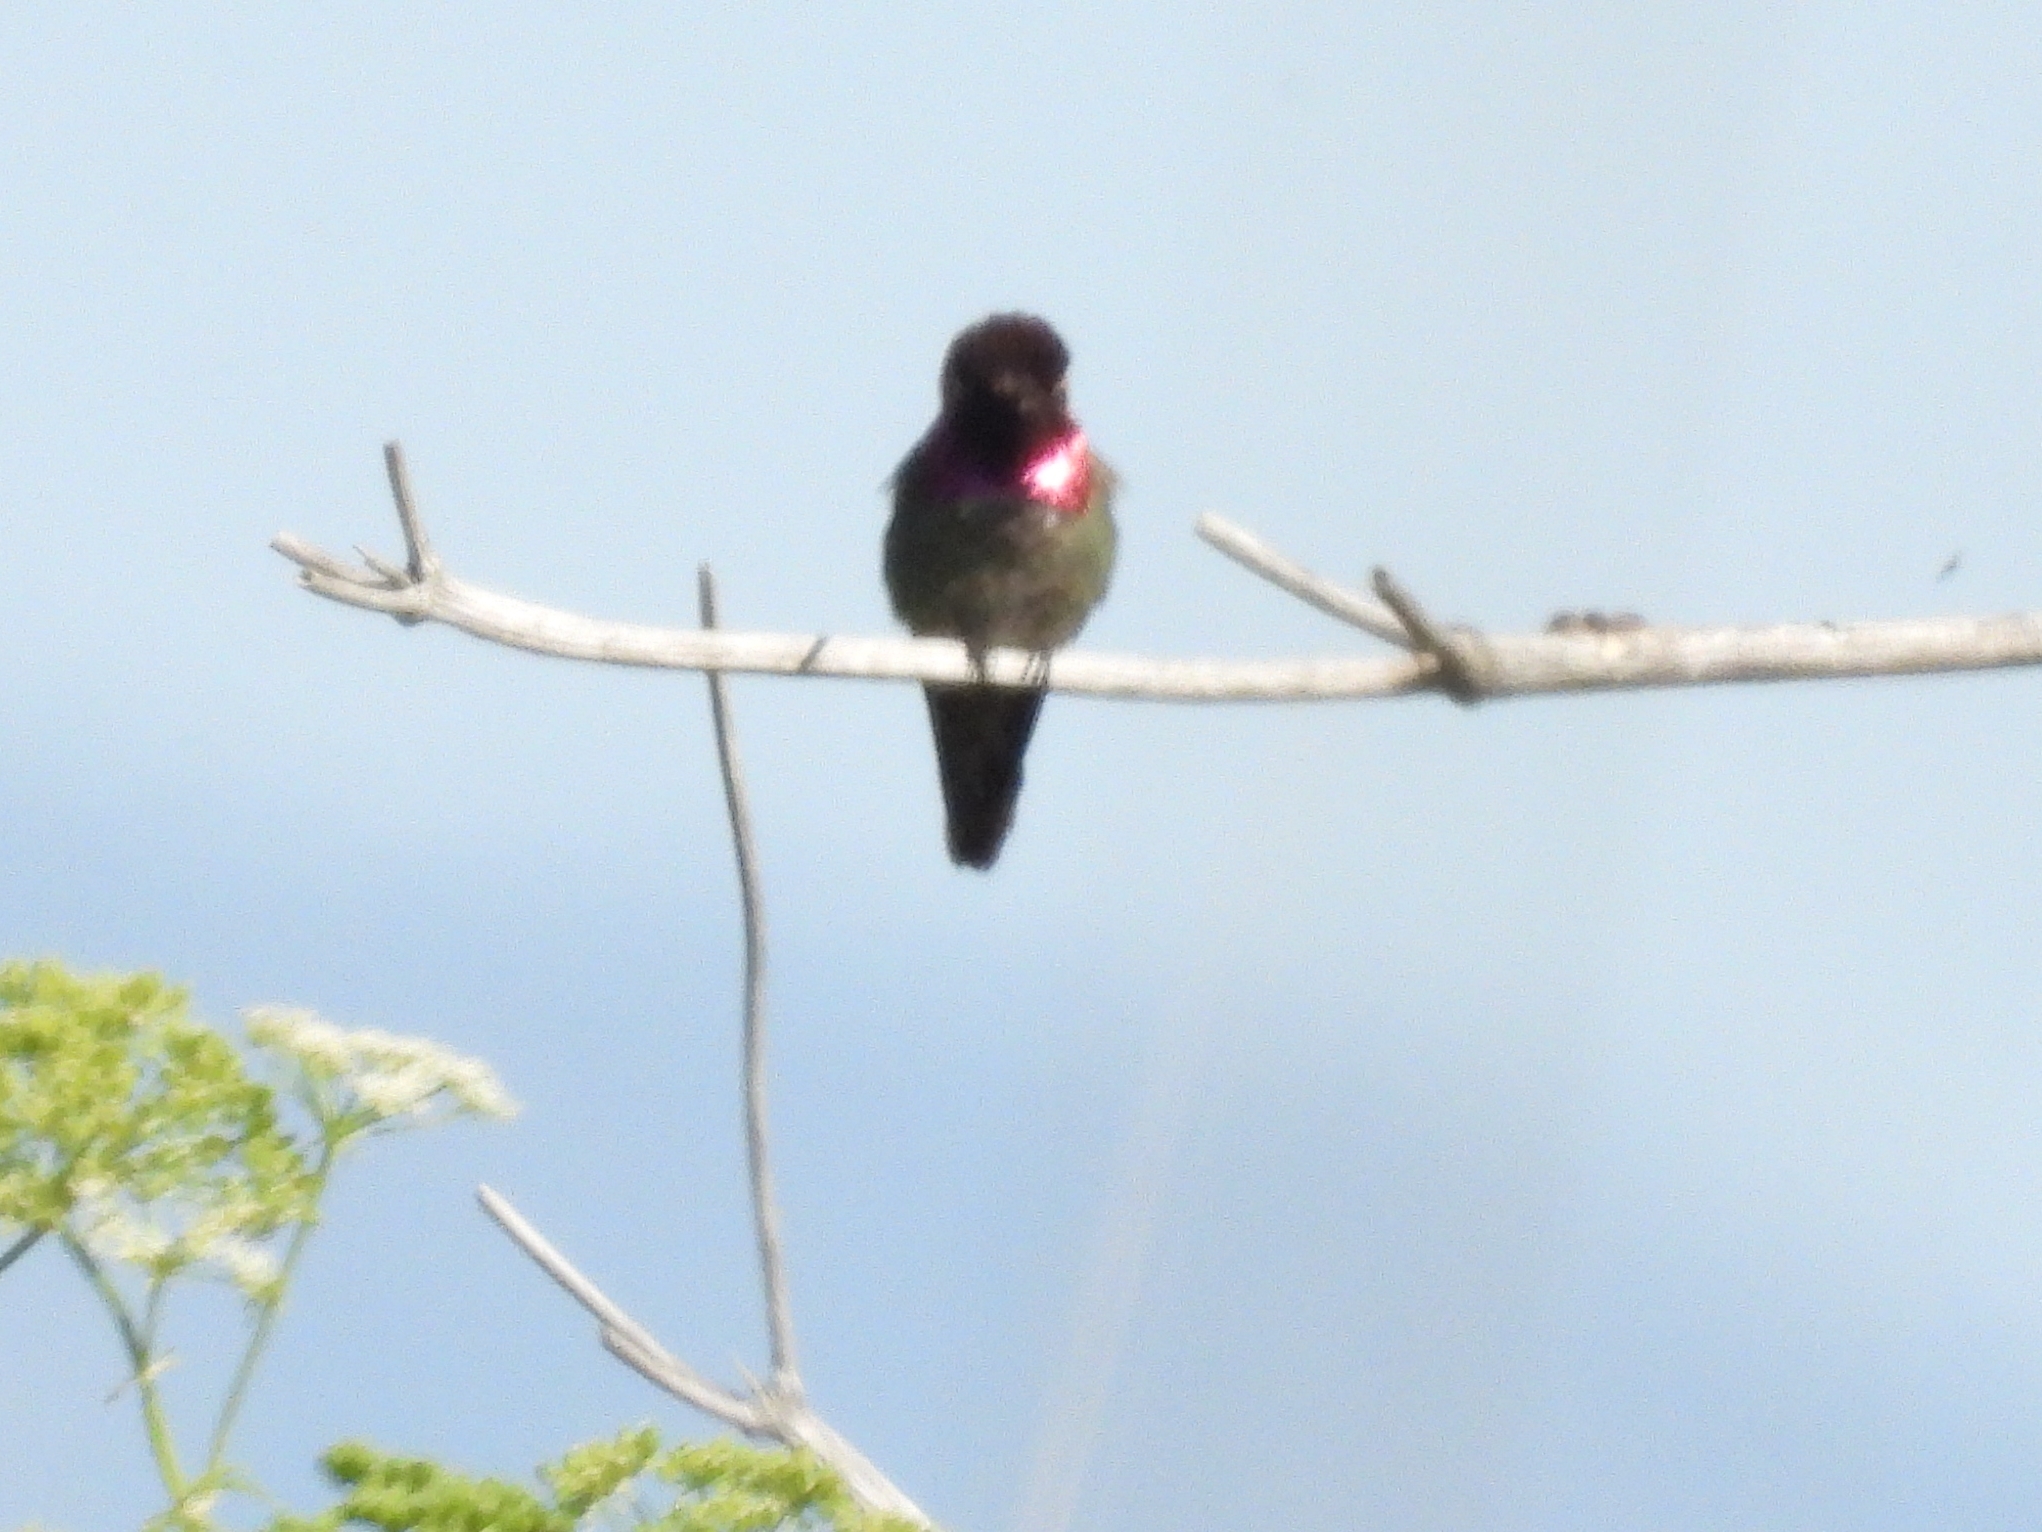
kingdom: Animalia
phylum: Chordata
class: Aves
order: Apodiformes
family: Trochilidae
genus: Calypte
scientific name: Calypte anna
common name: Anna's hummingbird
